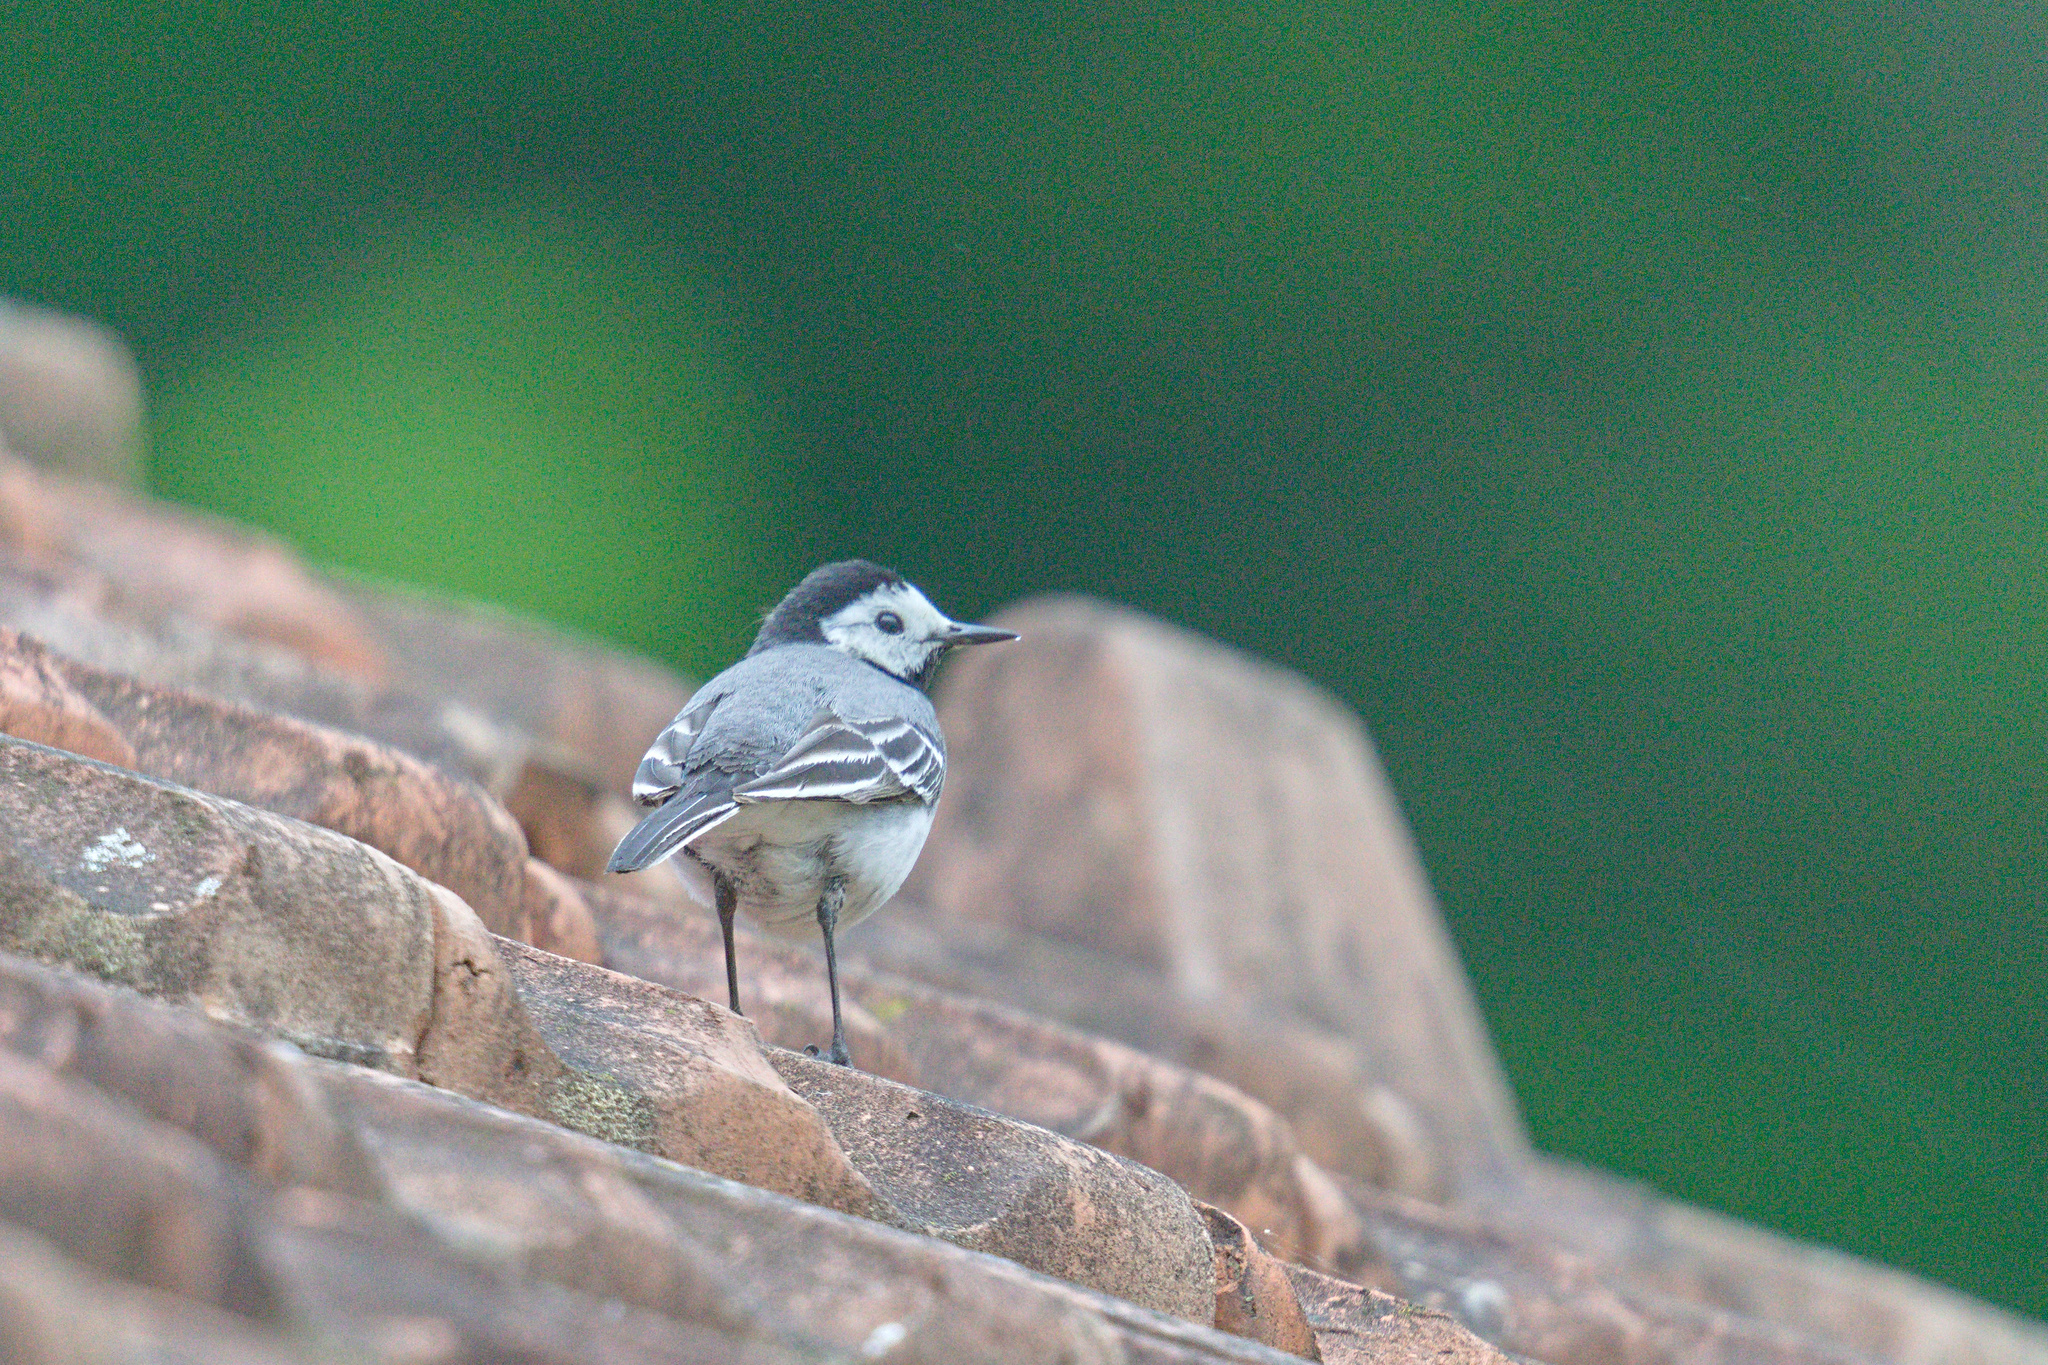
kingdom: Animalia
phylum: Chordata
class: Aves
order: Passeriformes
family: Motacillidae
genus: Motacilla
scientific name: Motacilla alba
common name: White wagtail
